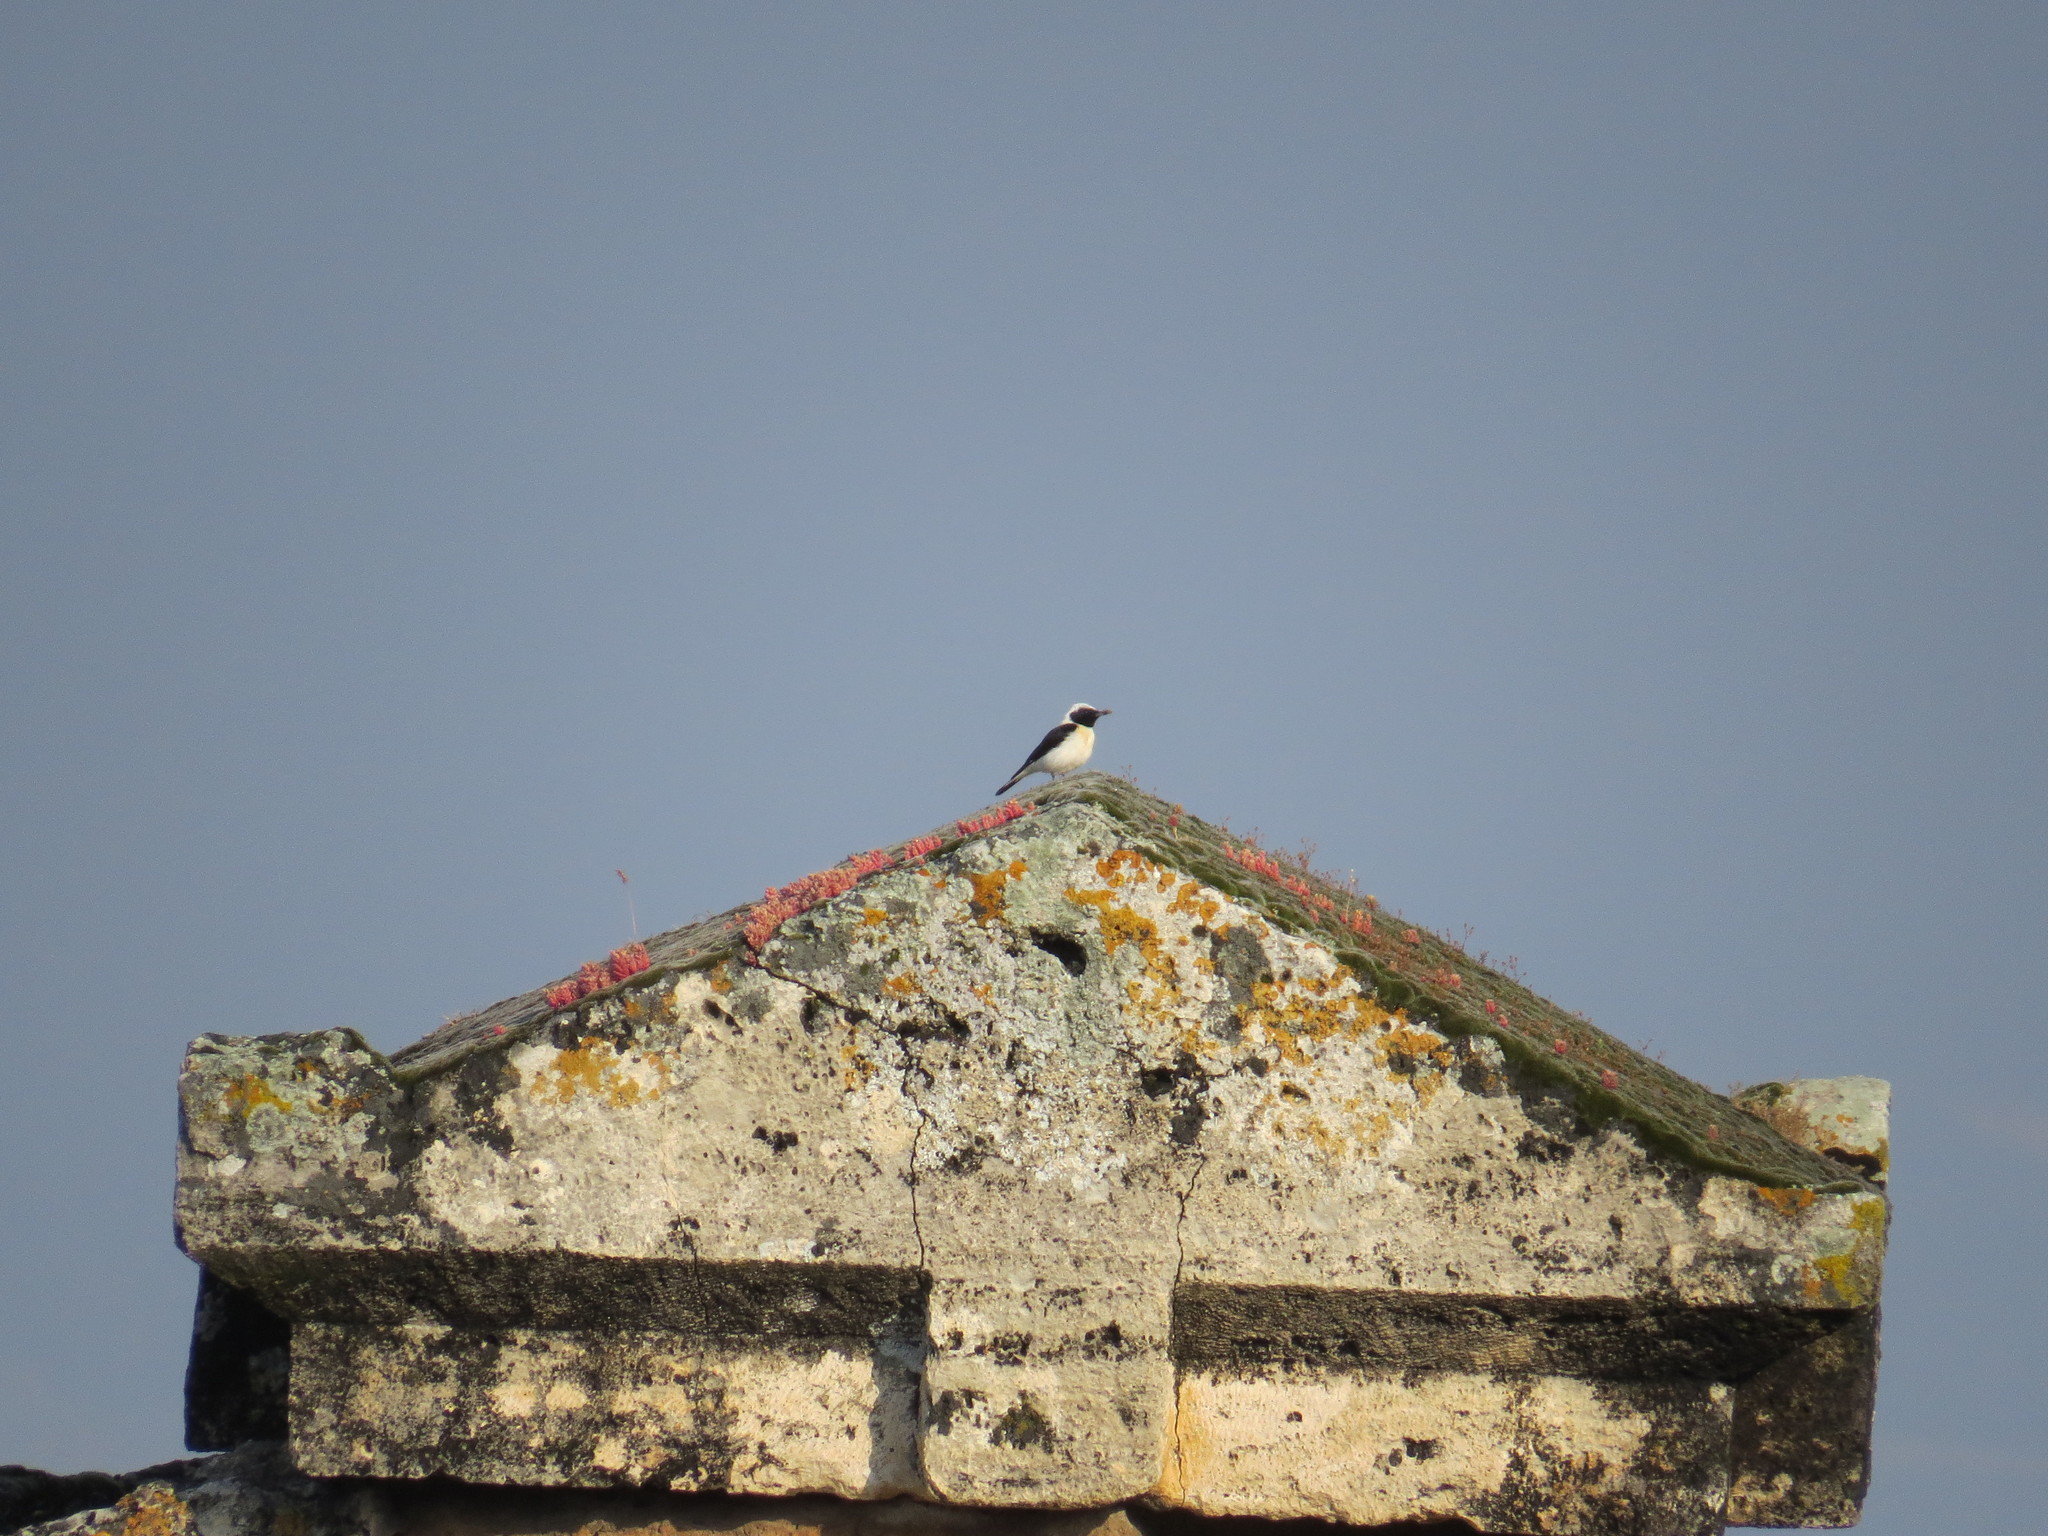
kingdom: Animalia
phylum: Chordata
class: Aves
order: Passeriformes
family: Muscicapidae
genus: Oenanthe
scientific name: Oenanthe hispanica
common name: Black-eared wheatear
